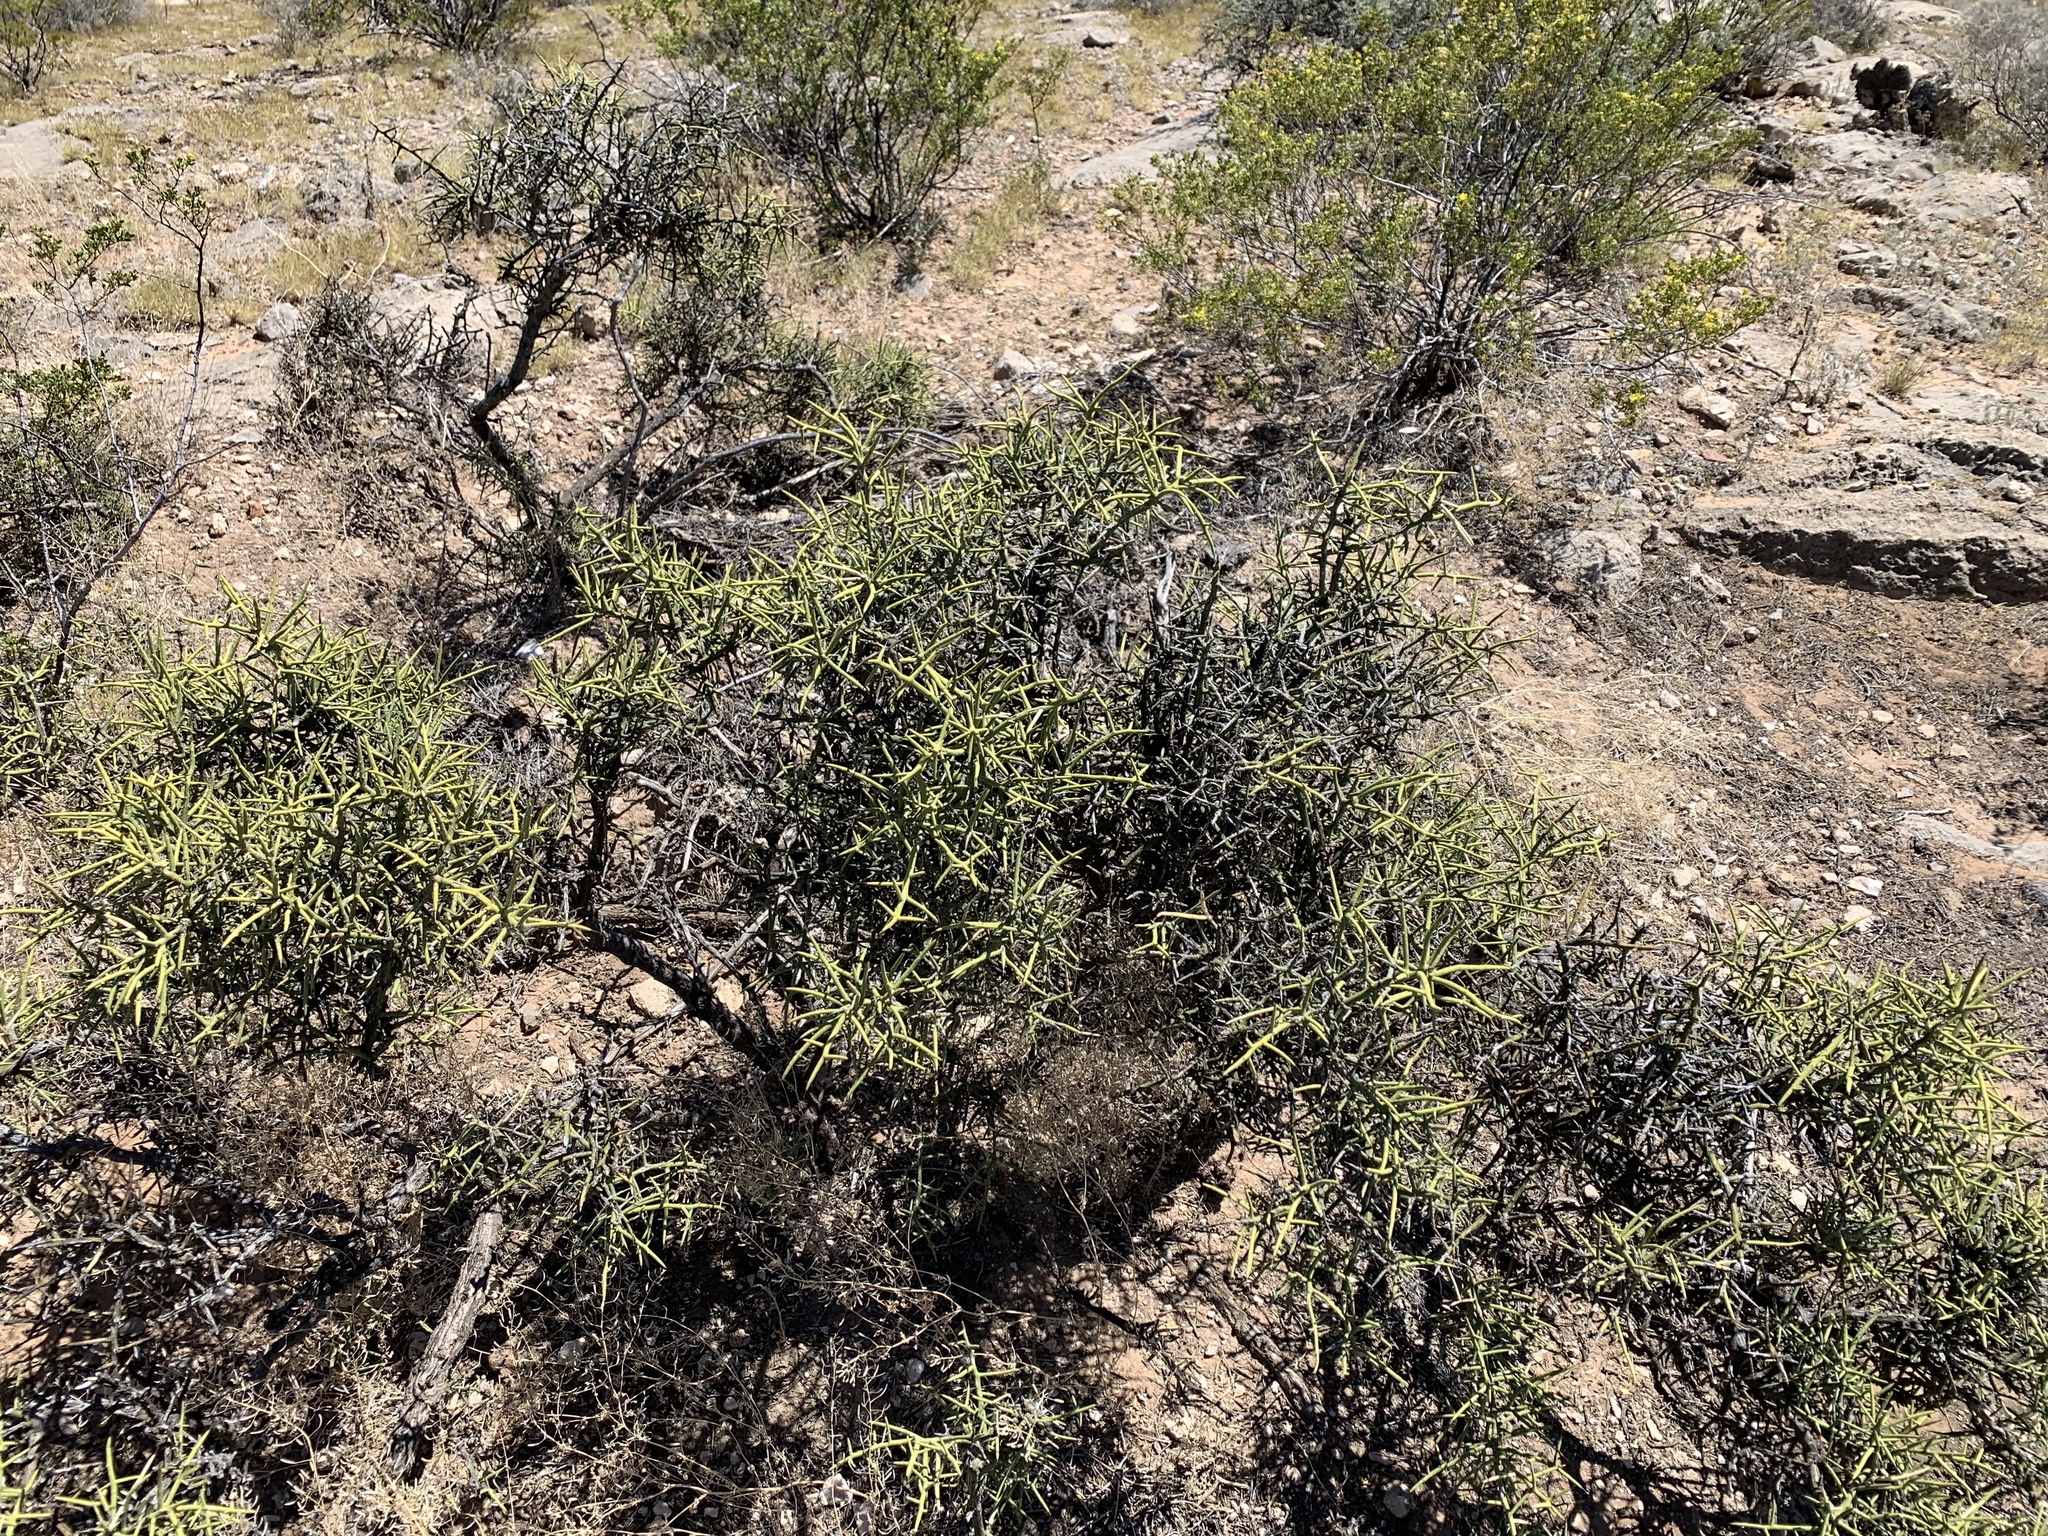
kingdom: Plantae
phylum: Tracheophyta
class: Magnoliopsida
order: Brassicales
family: Koeberliniaceae
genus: Koeberlinia
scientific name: Koeberlinia spinosa
